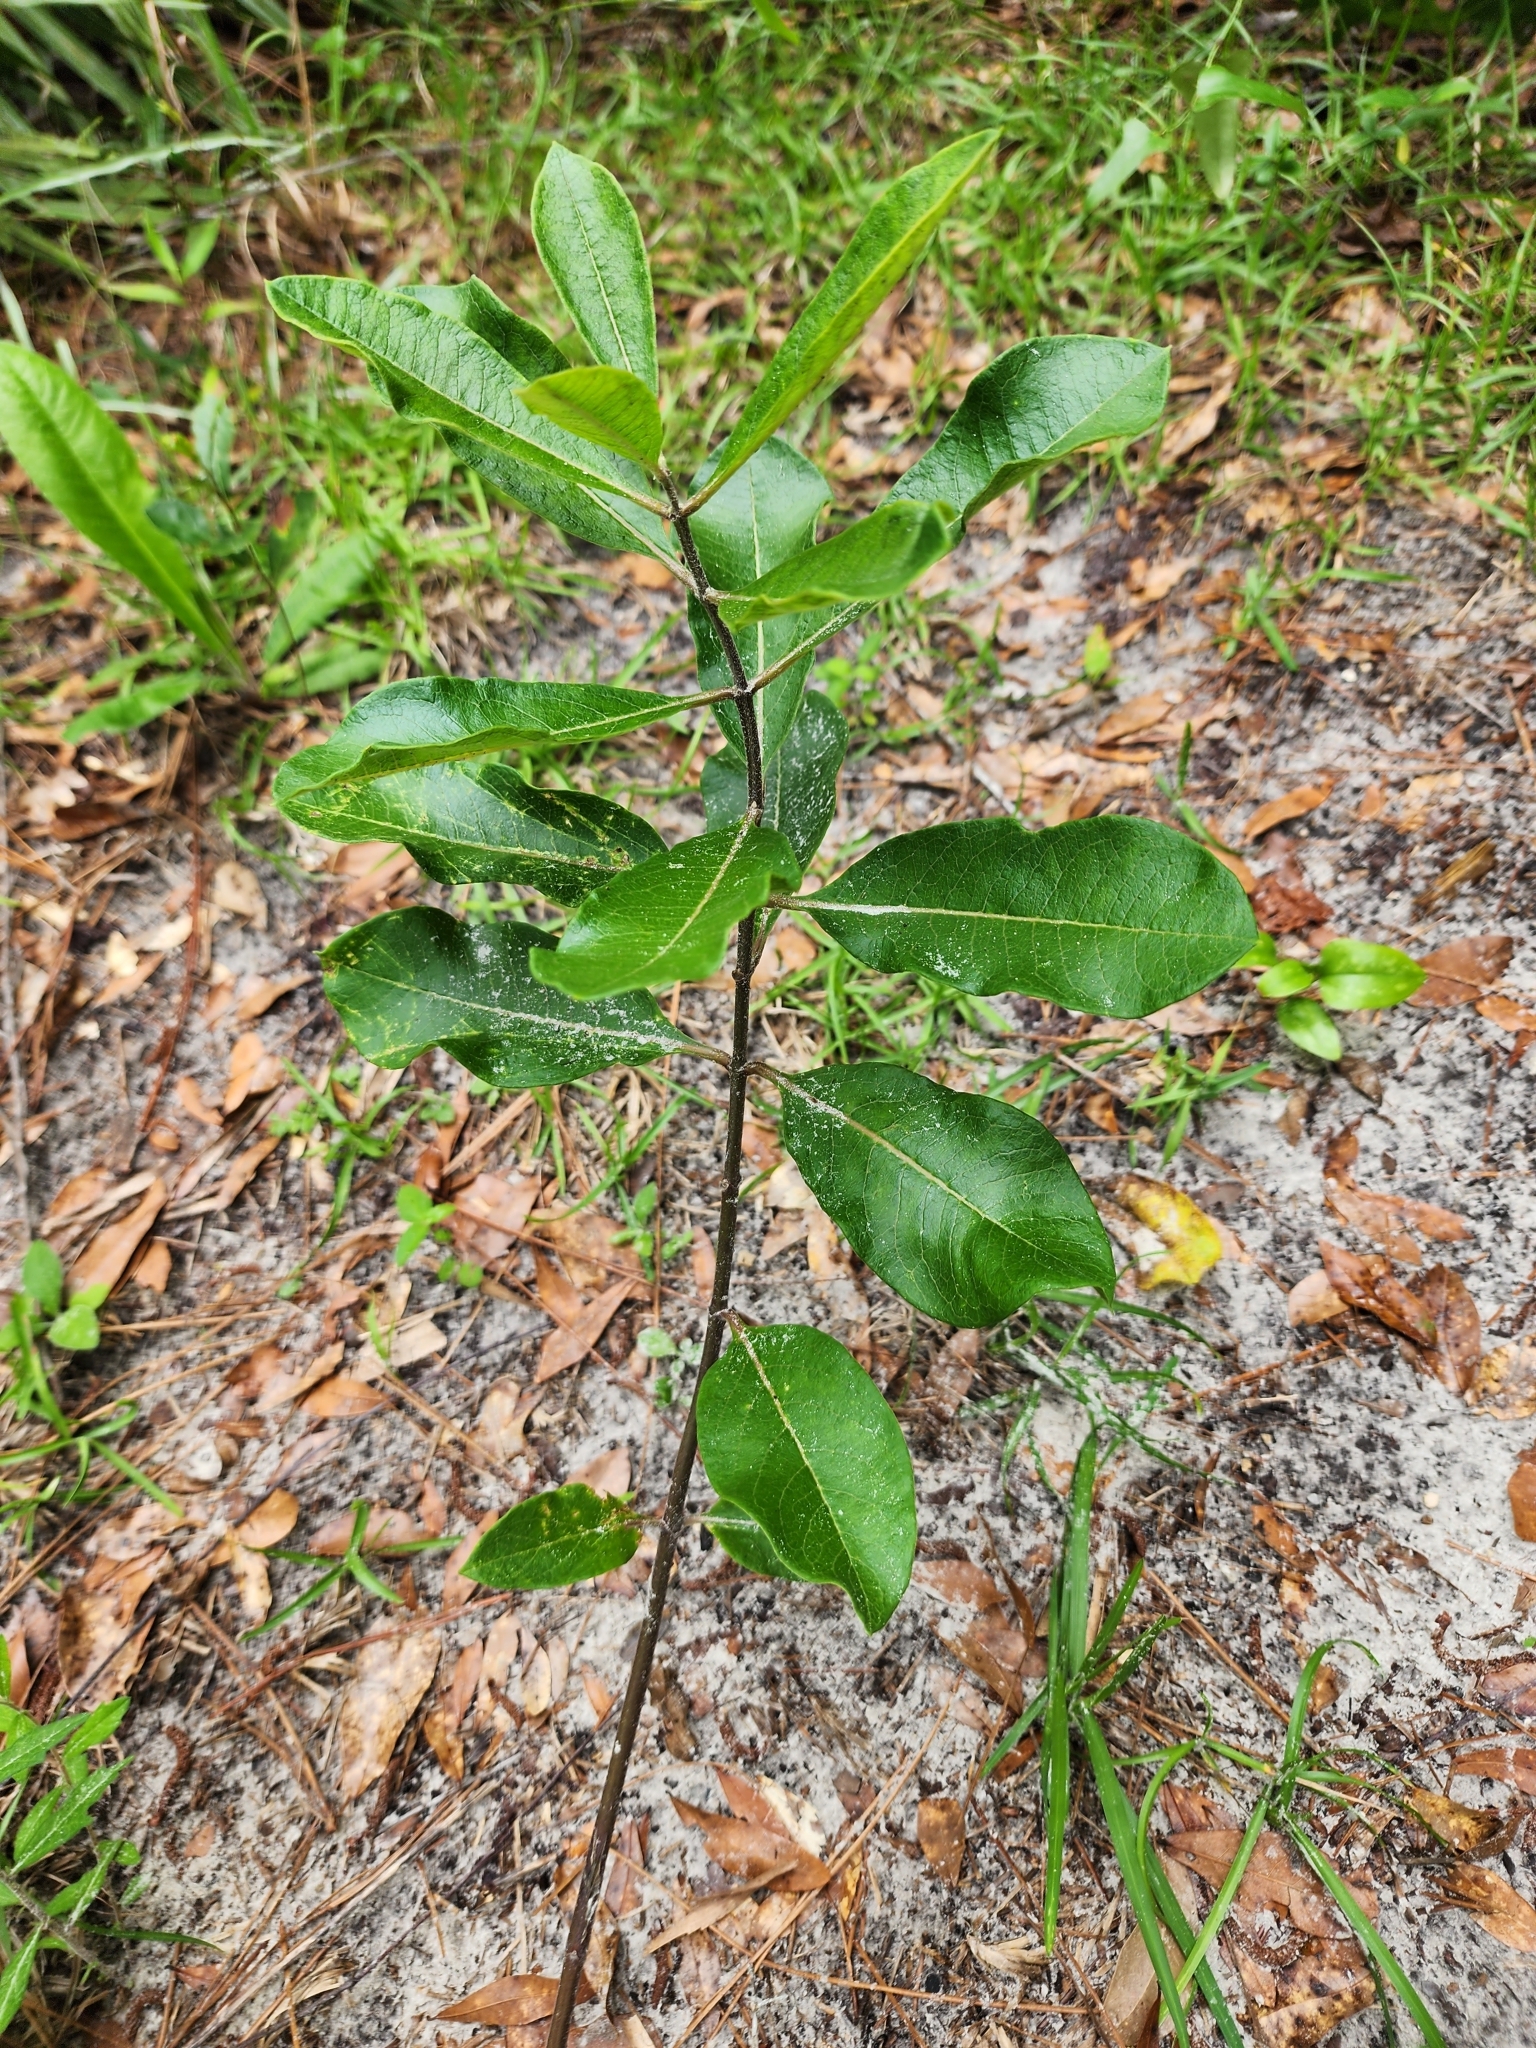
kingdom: Plantae
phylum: Tracheophyta
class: Magnoliopsida
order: Gentianales
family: Apocynaceae
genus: Asclepias
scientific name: Asclepias tomentosa
